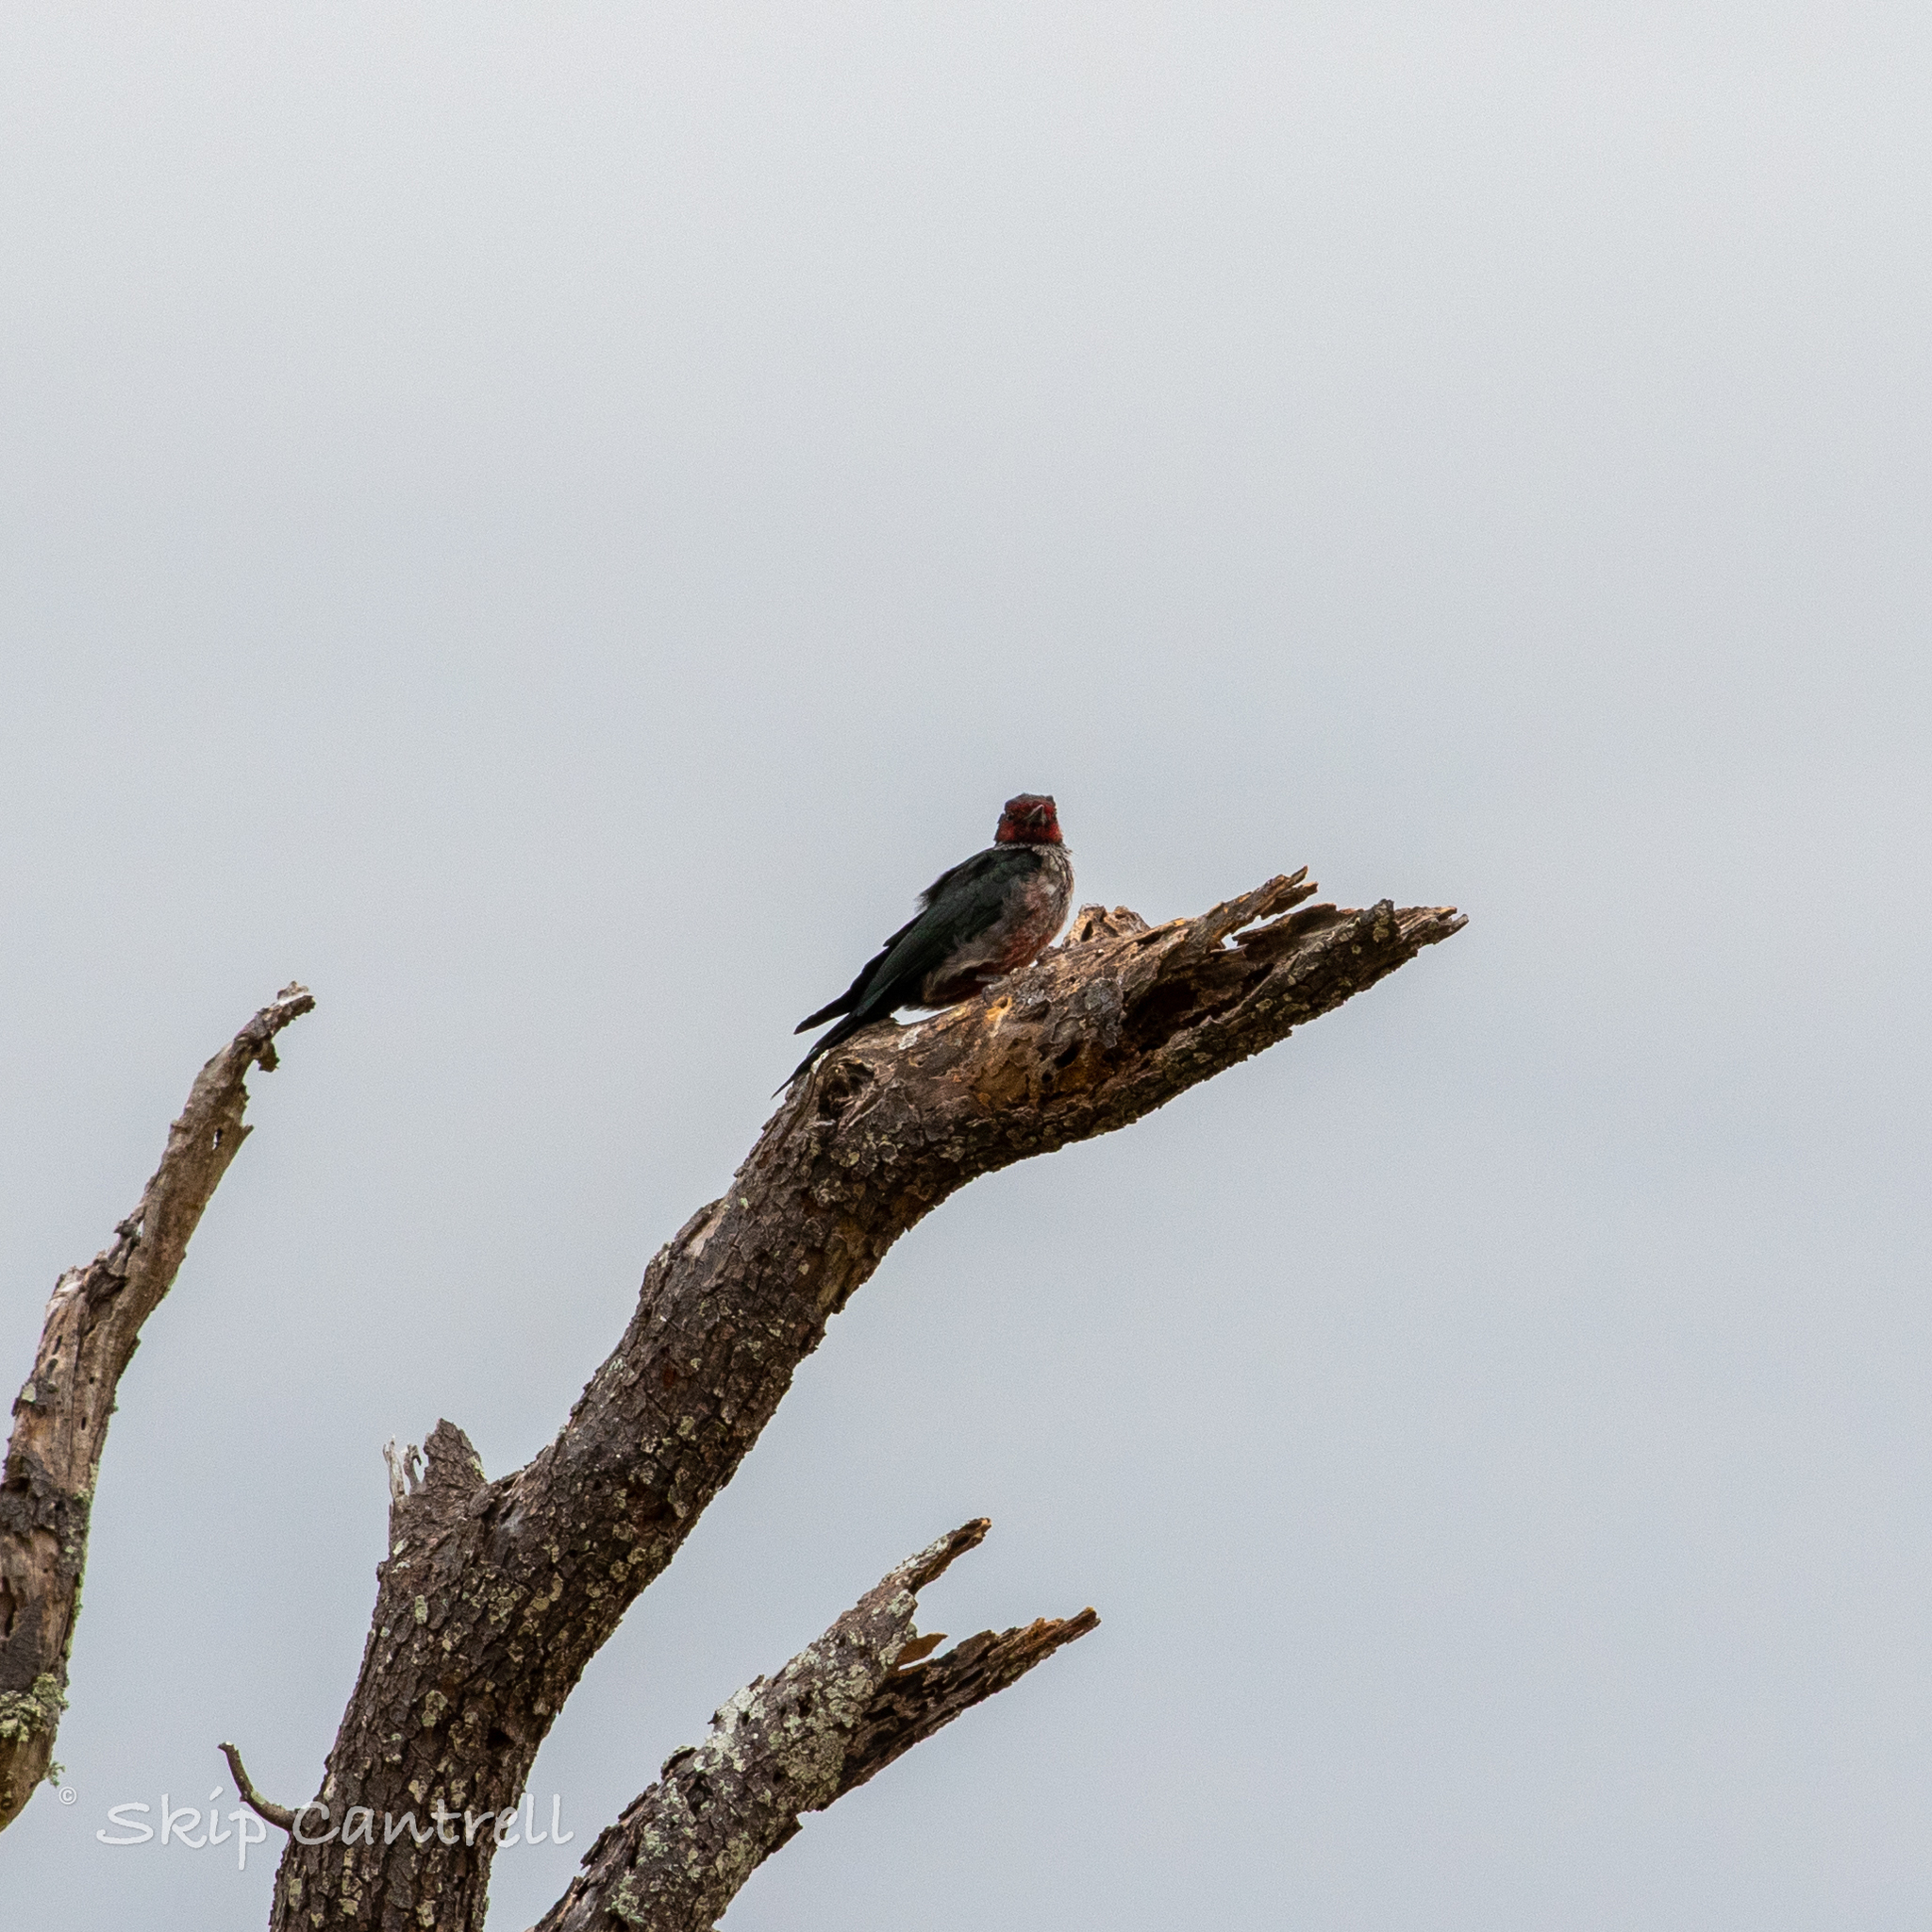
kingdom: Animalia
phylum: Chordata
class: Aves
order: Piciformes
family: Picidae
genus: Melanerpes
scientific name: Melanerpes lewis
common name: Lewis's woodpecker
